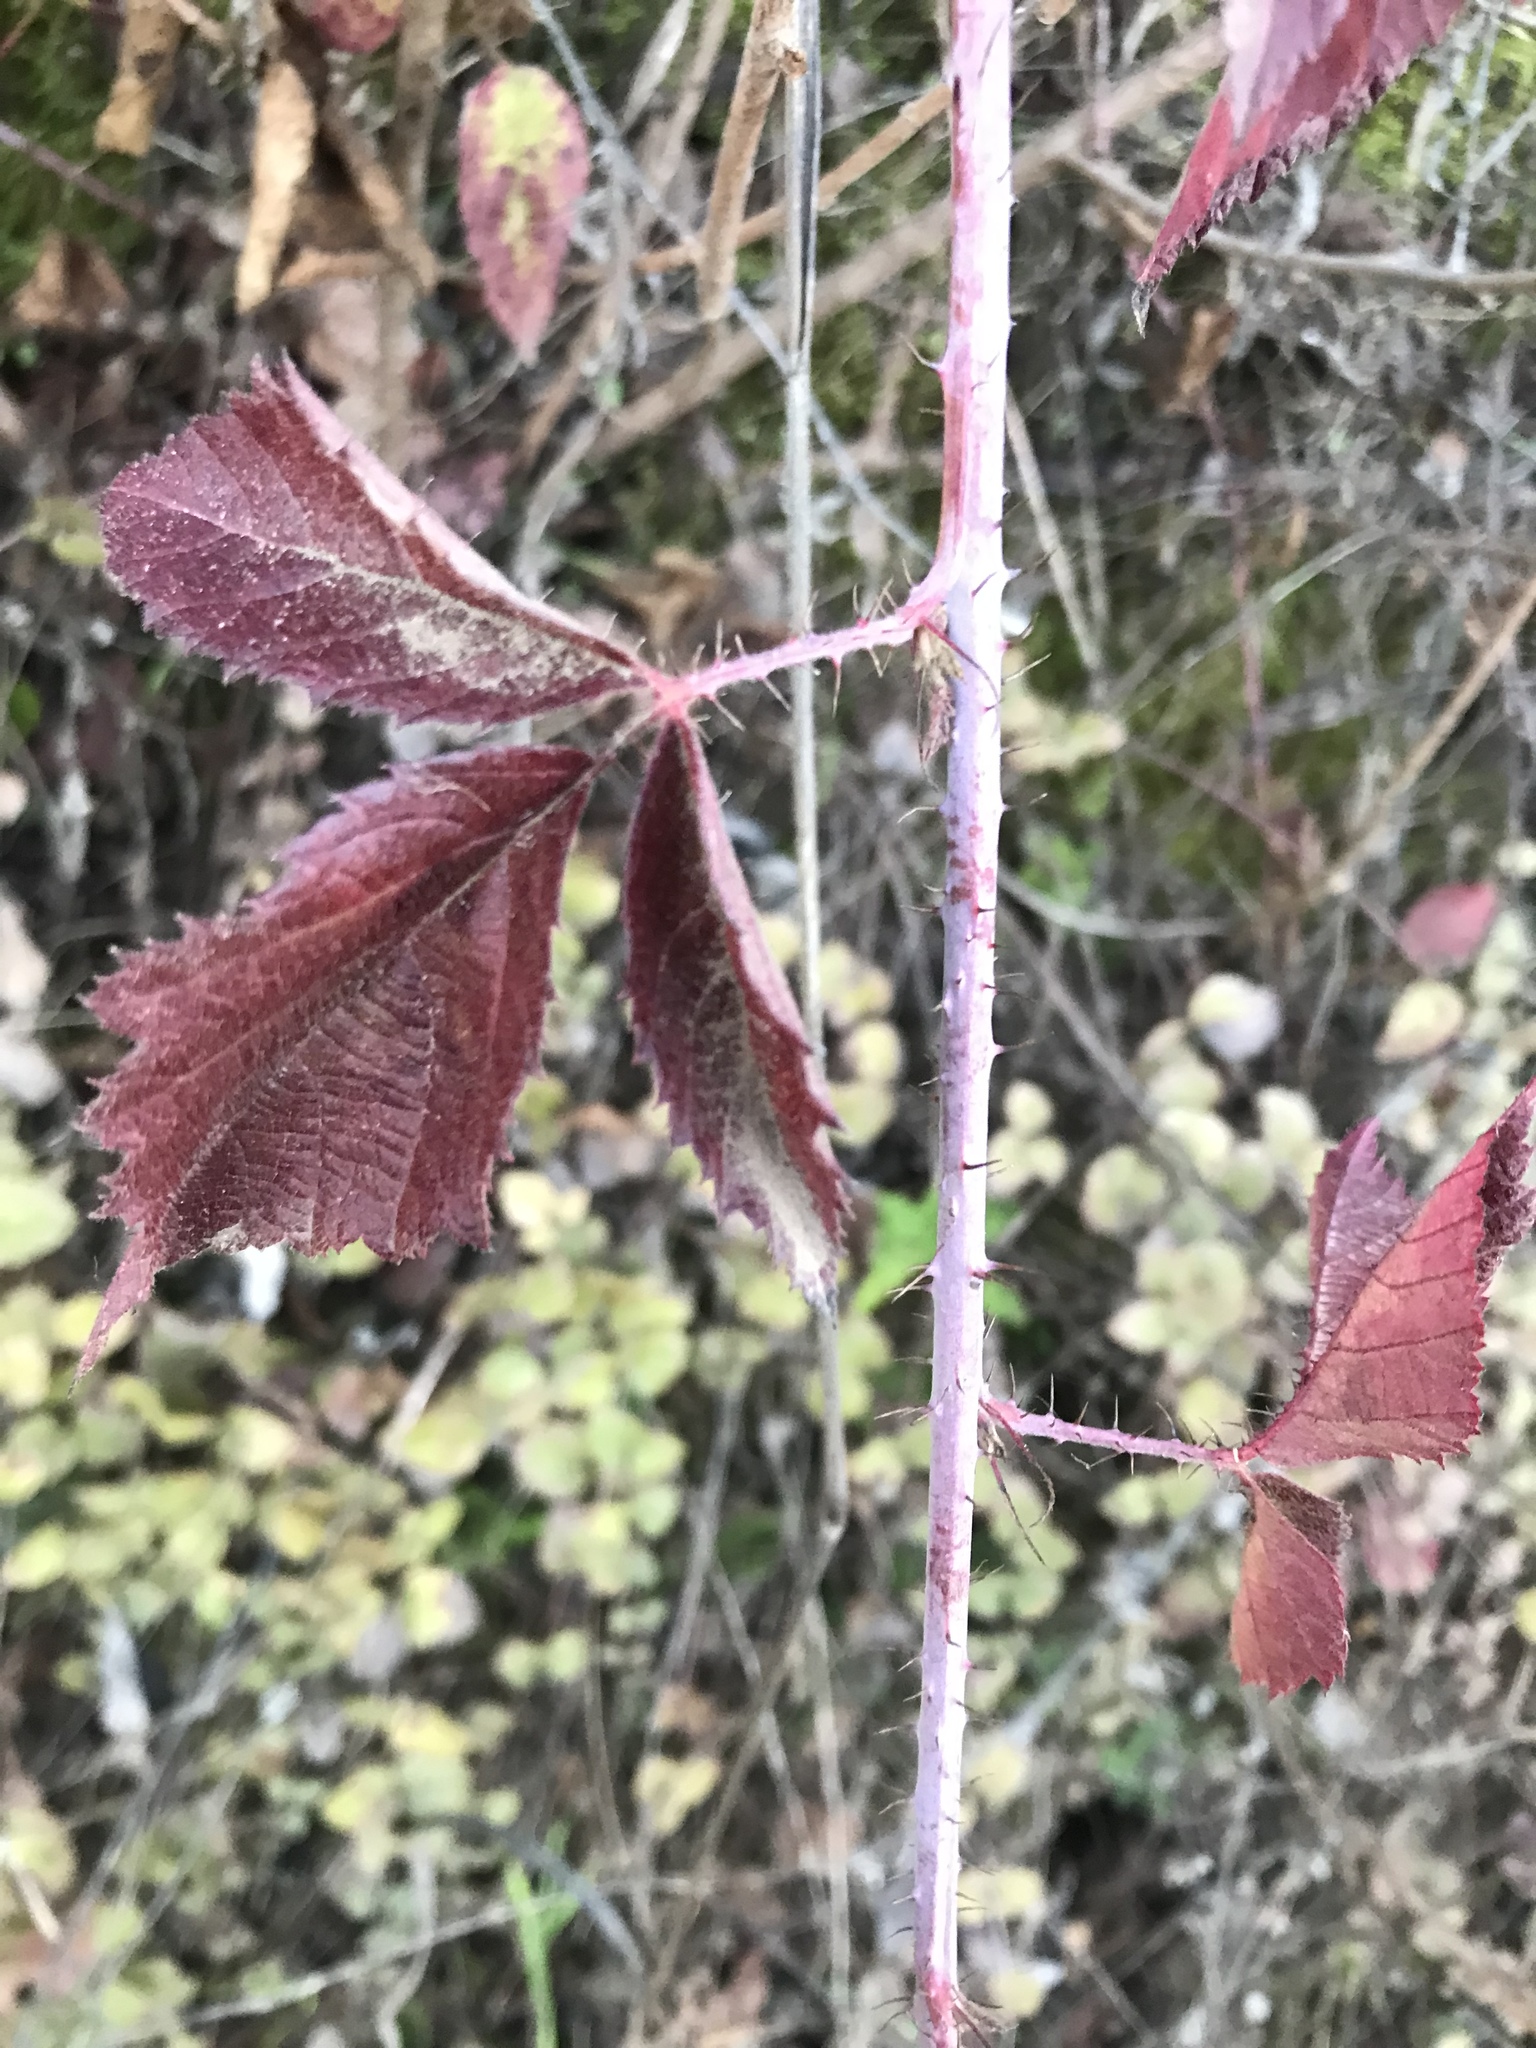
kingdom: Plantae
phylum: Tracheophyta
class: Magnoliopsida
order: Rosales
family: Rosaceae
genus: Rubus
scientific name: Rubus ursinus
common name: Pacific blackberry
